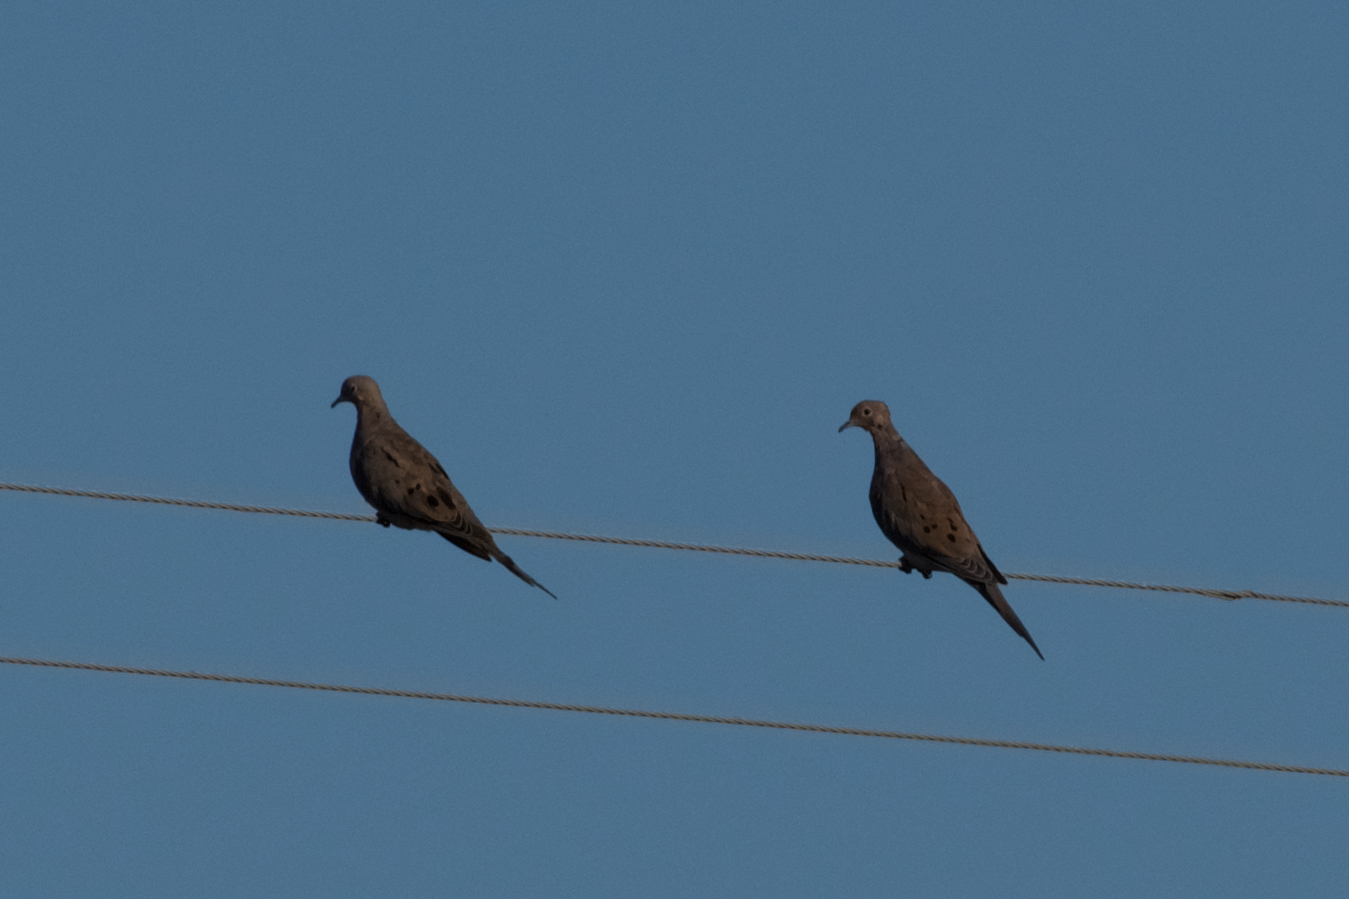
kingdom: Animalia
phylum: Chordata
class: Aves
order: Columbiformes
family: Columbidae
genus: Zenaida
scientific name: Zenaida macroura
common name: Mourning dove
